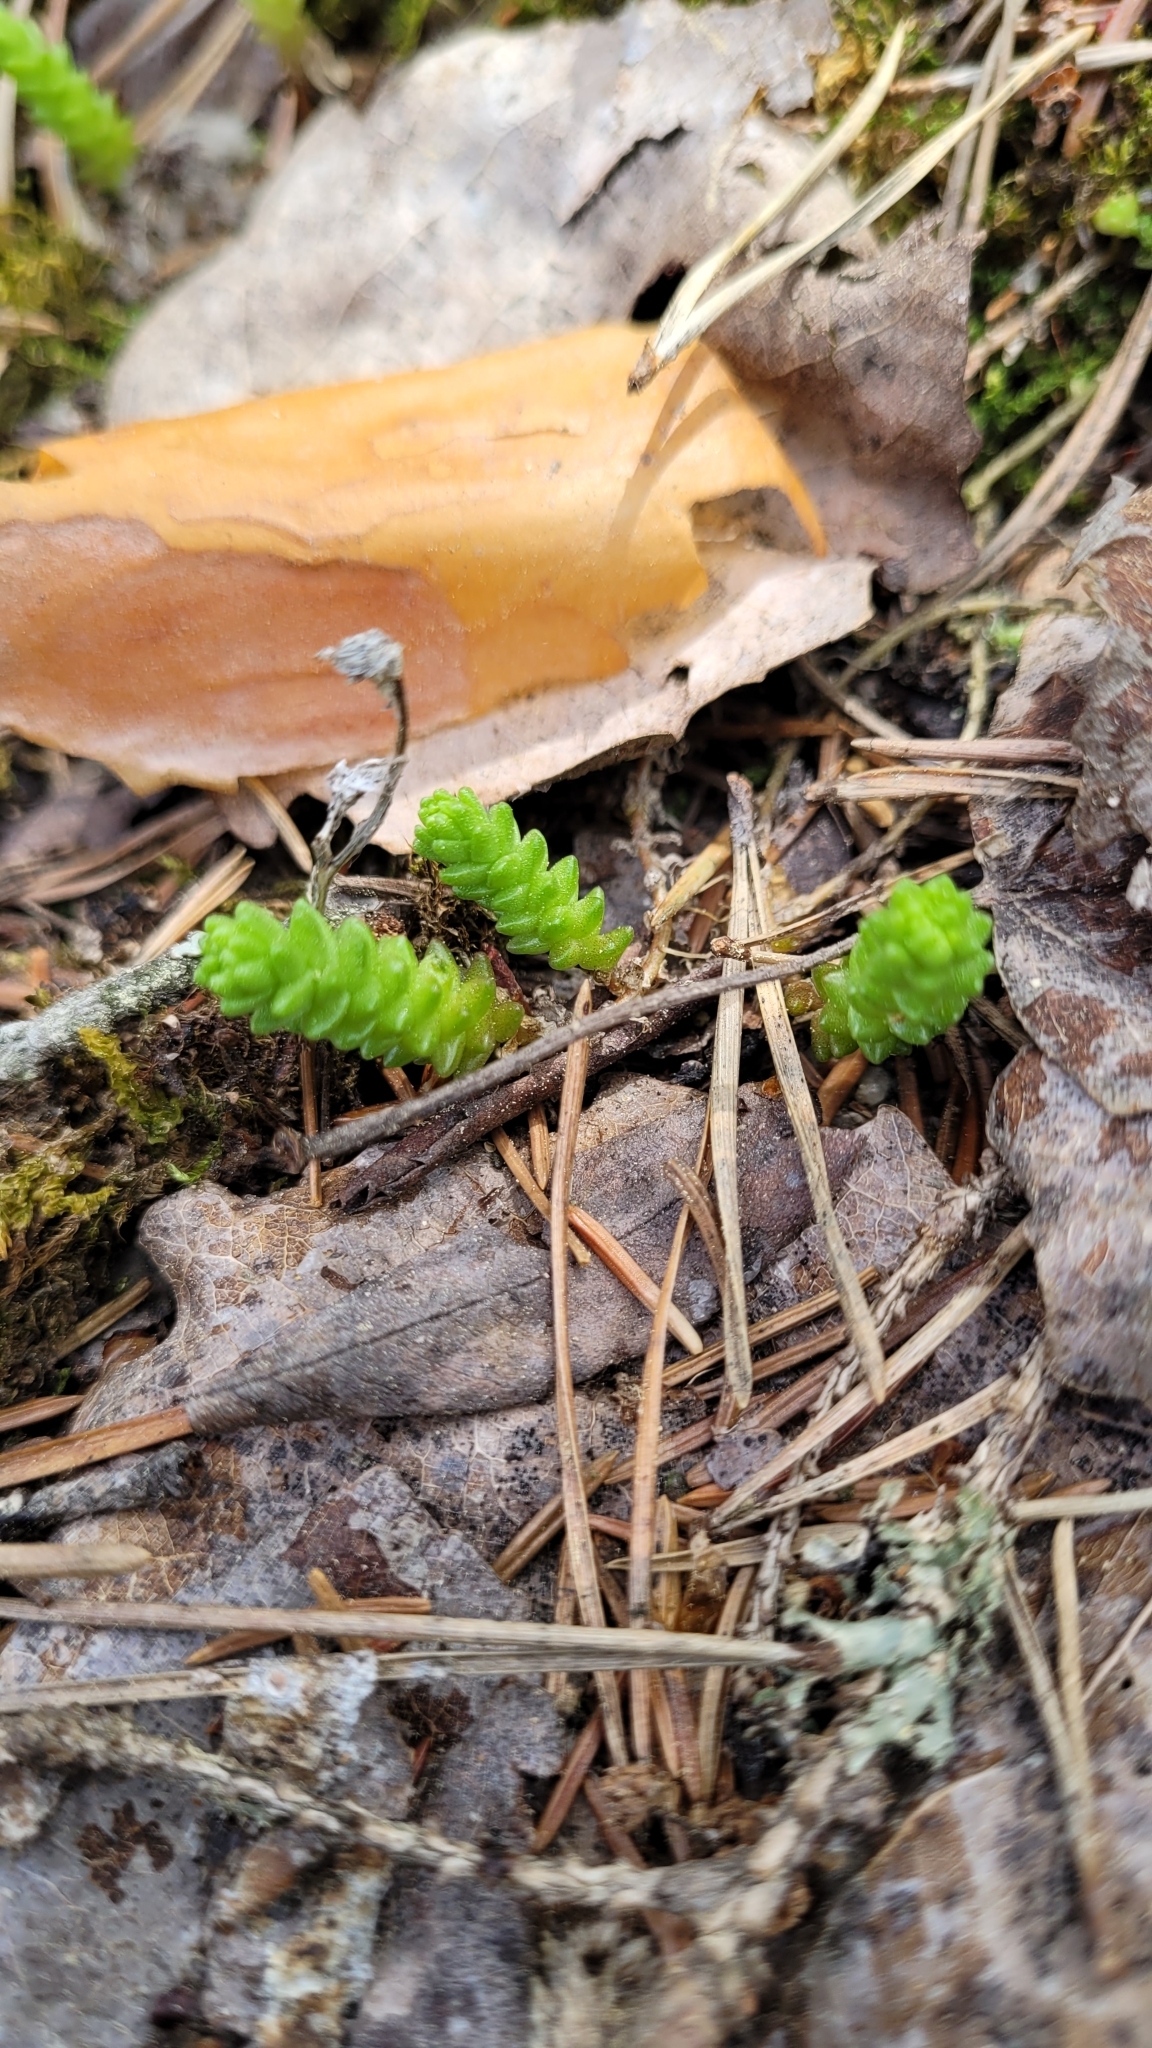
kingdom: Plantae
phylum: Tracheophyta
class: Magnoliopsida
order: Saxifragales
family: Crassulaceae
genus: Sedum
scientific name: Sedum acre
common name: Biting stonecrop
